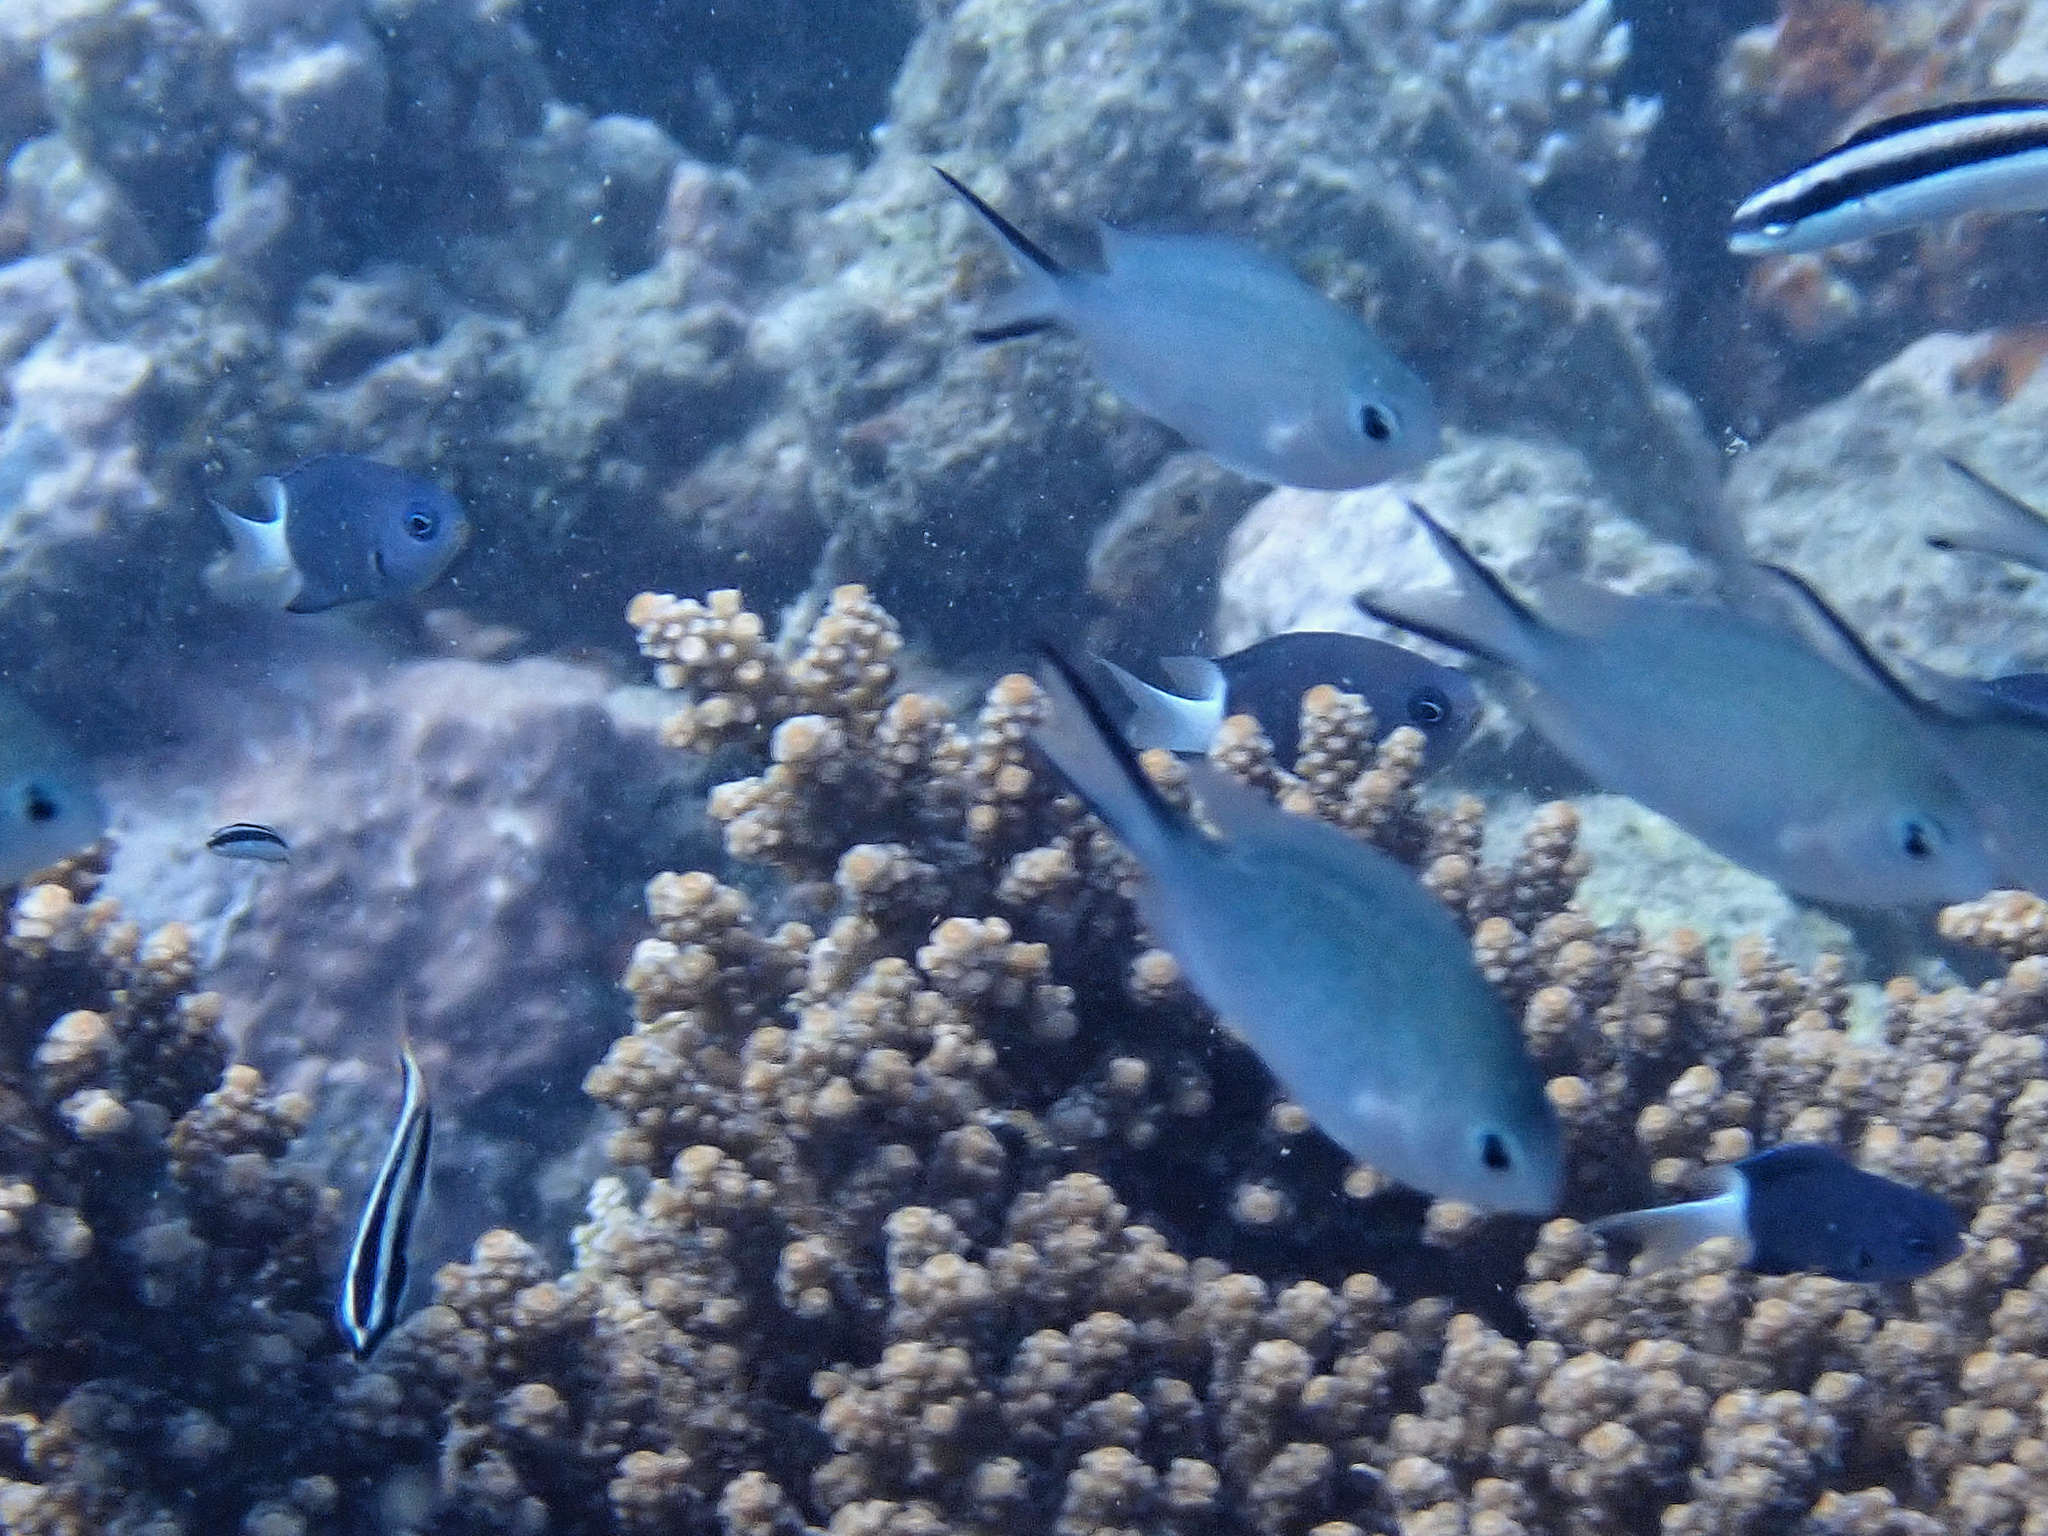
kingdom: Animalia
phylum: Chordata
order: Perciformes
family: Pomacentridae
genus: Pycnochromis
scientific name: Pycnochromis margaritifer
